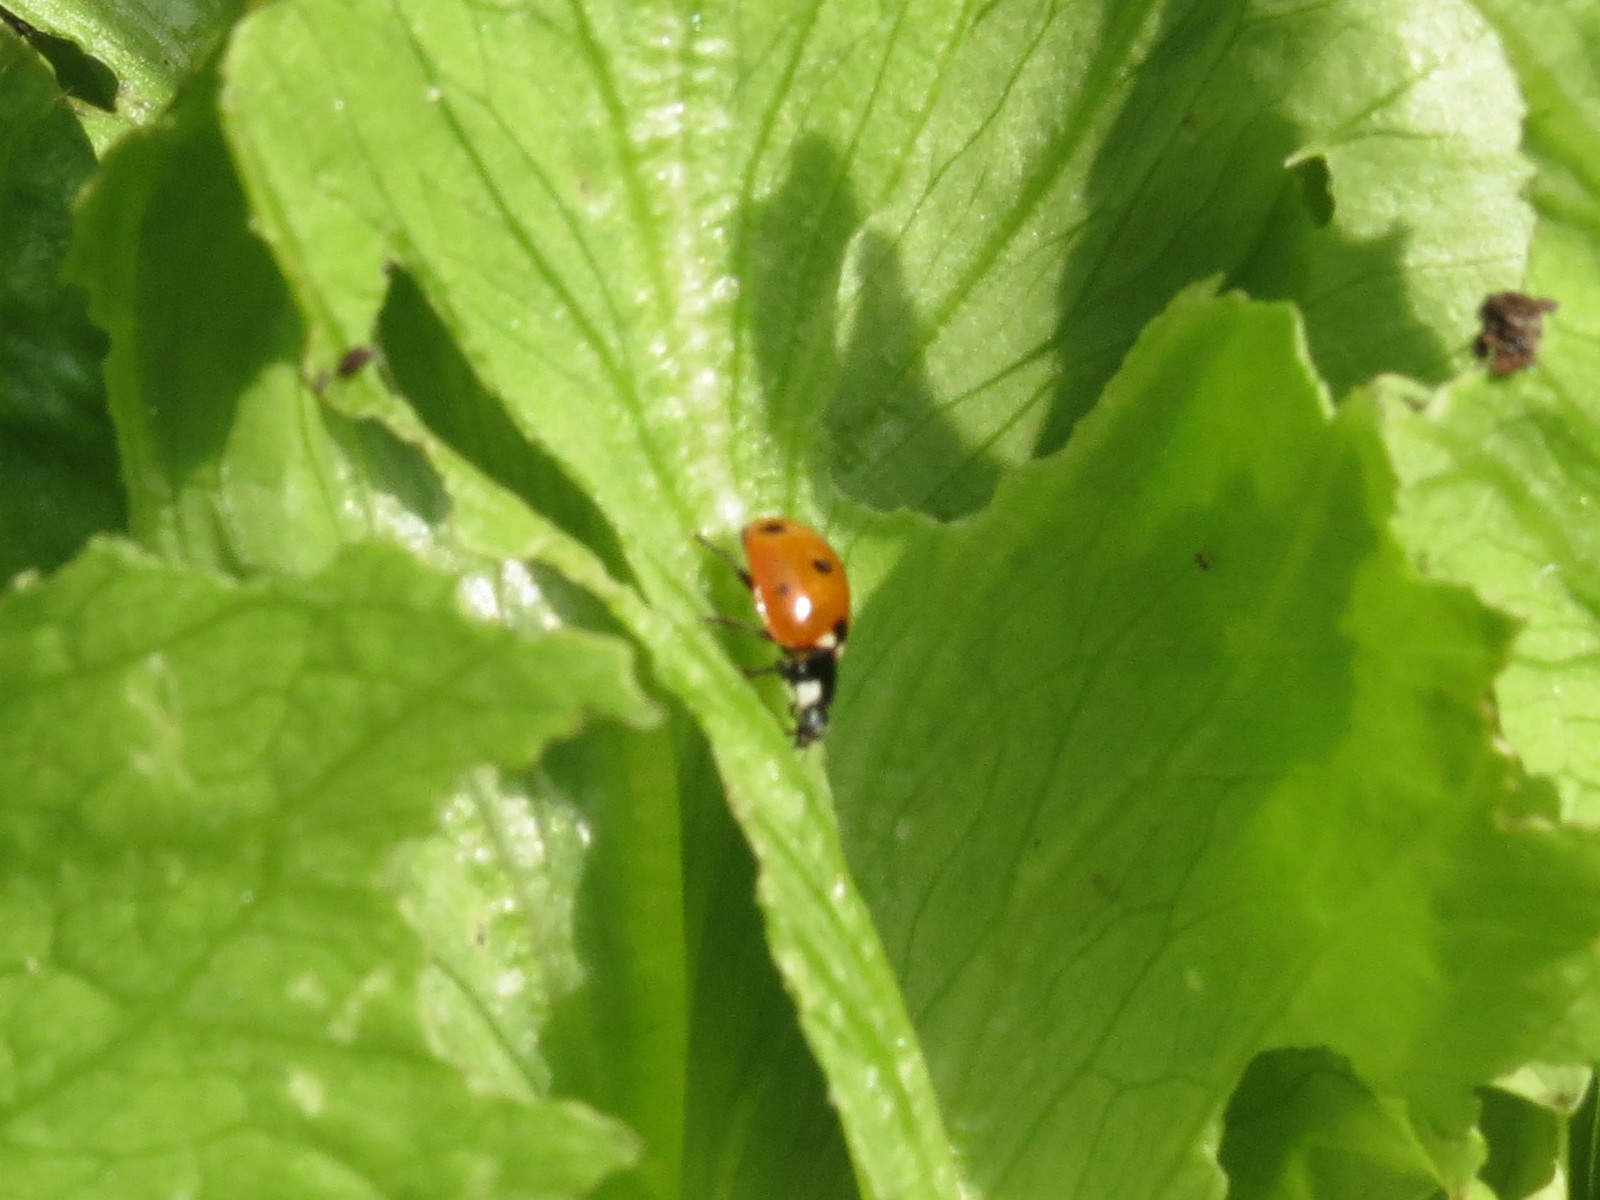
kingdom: Animalia
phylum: Arthropoda
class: Insecta
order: Coleoptera
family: Coccinellidae
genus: Coccinella
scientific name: Coccinella septempunctata
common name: Sevenspotted lady beetle
